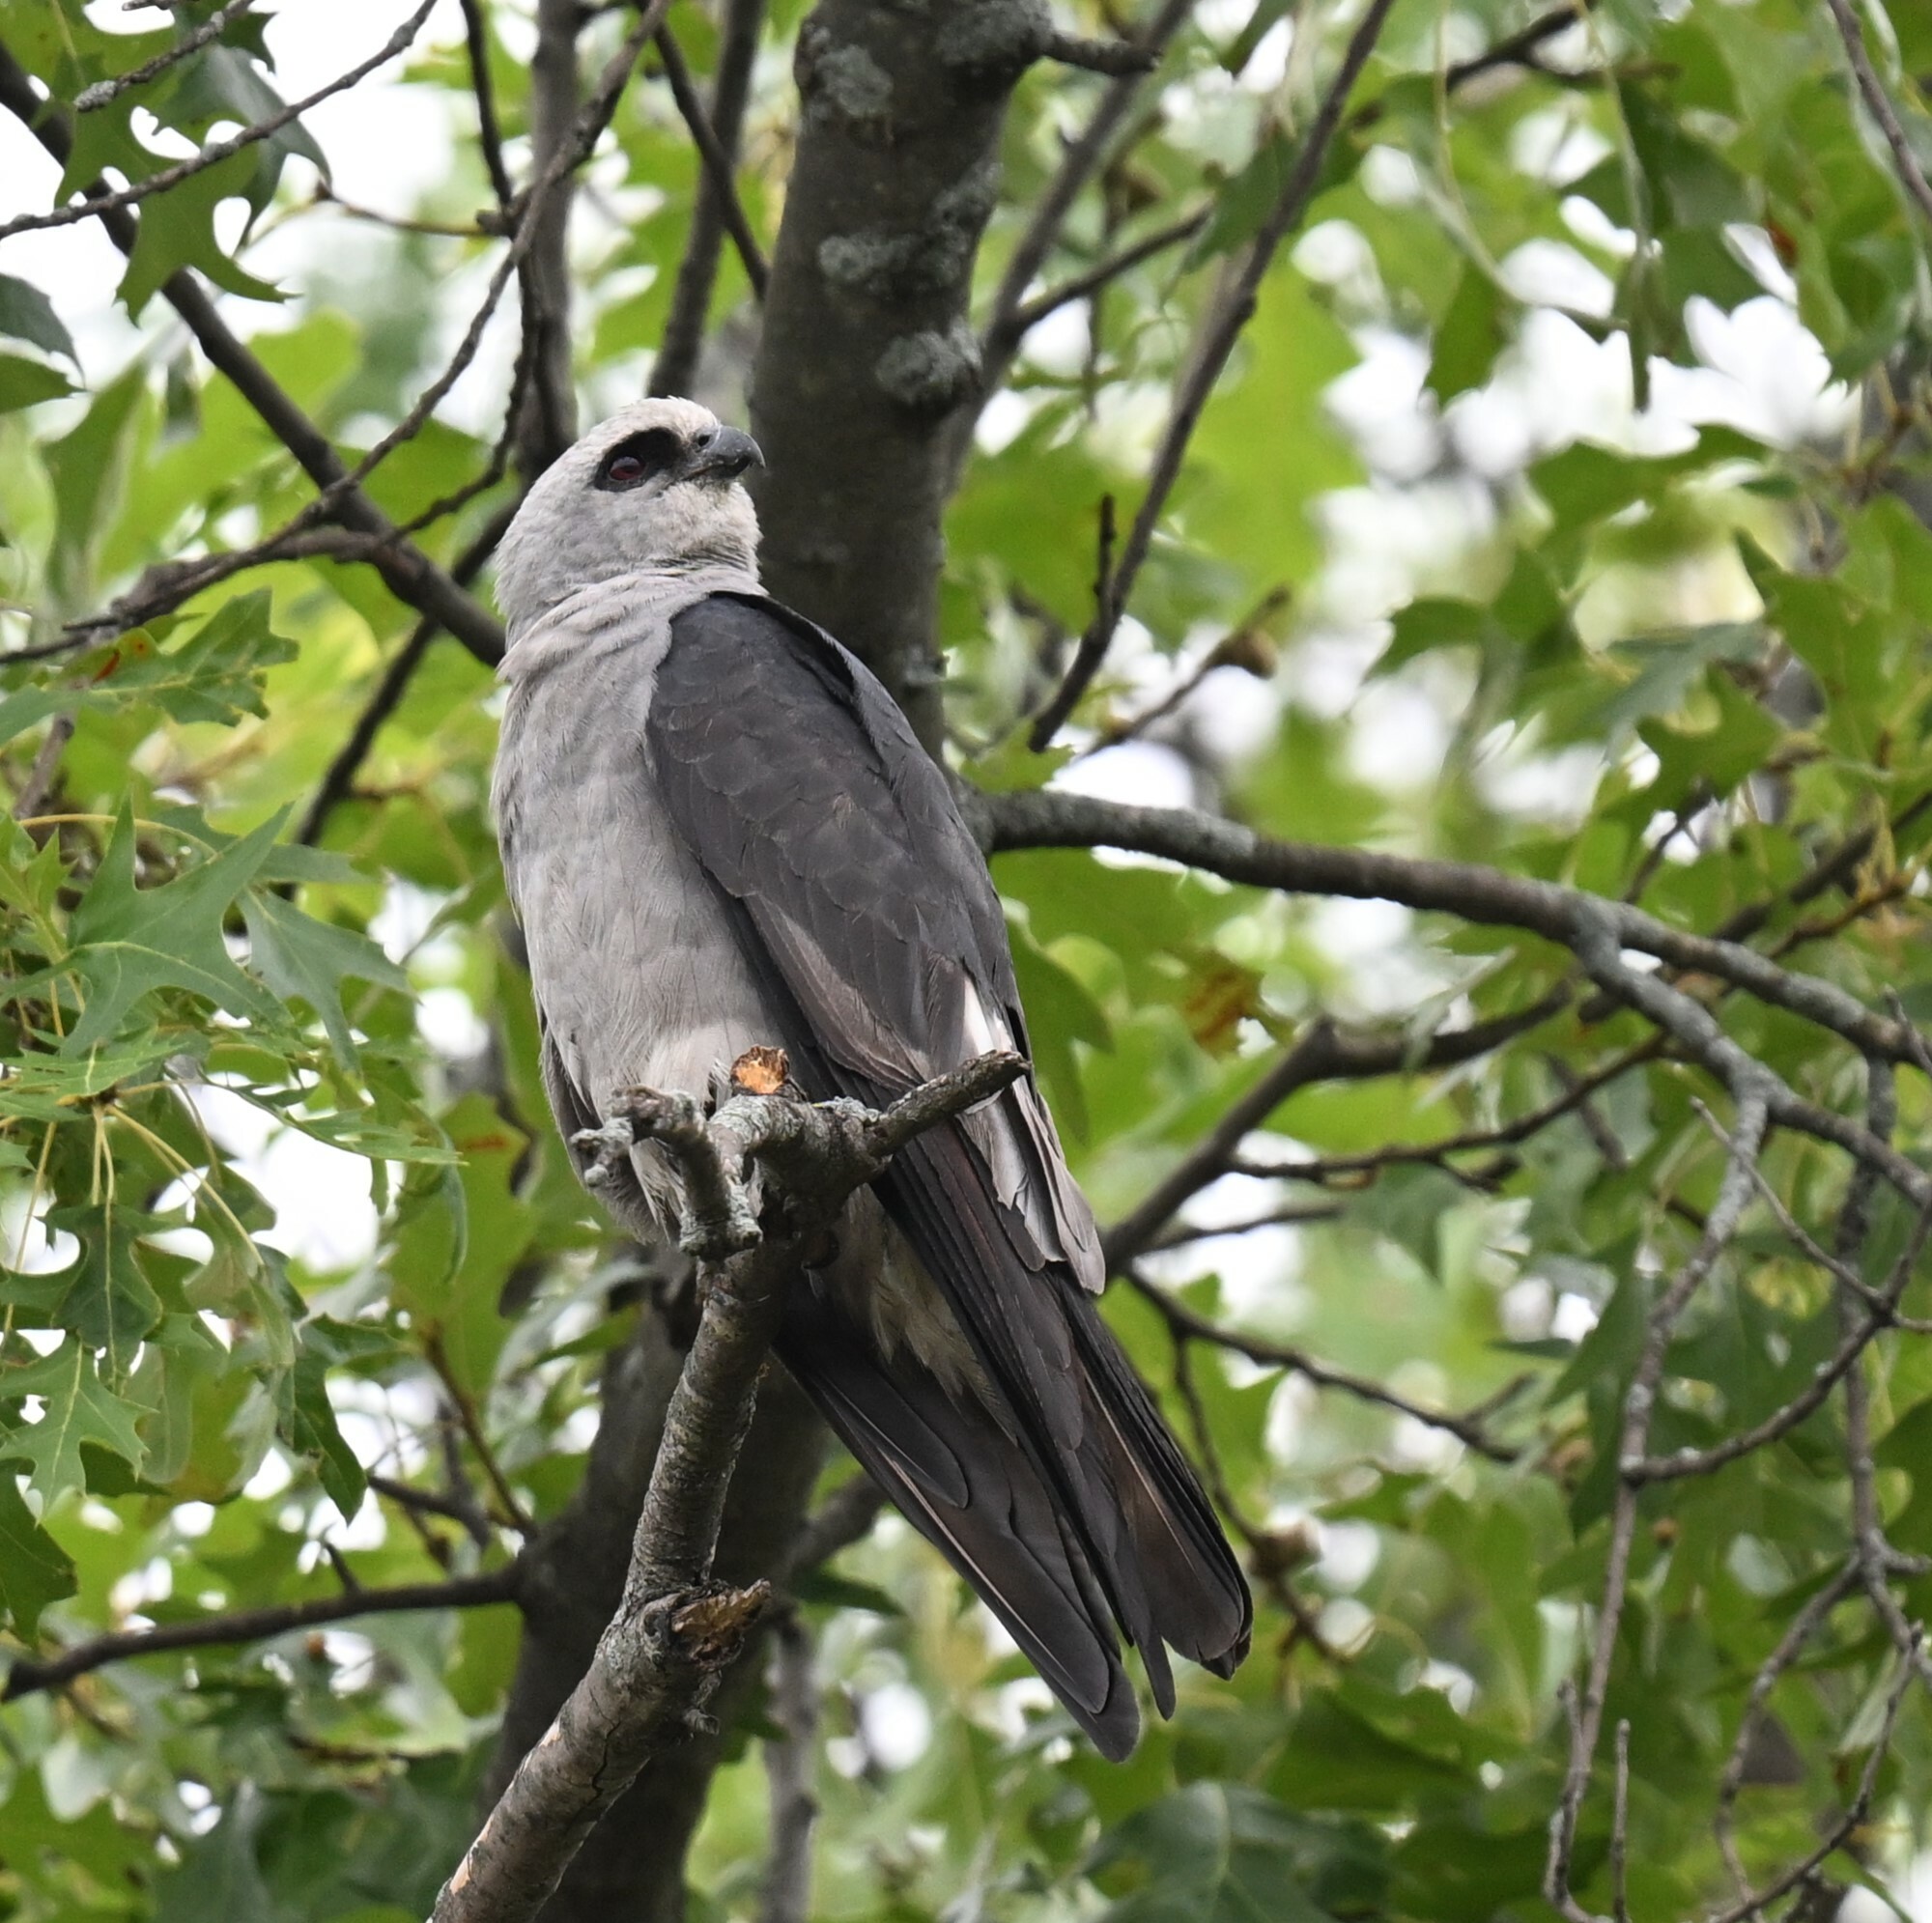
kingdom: Animalia
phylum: Chordata
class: Aves
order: Accipitriformes
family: Accipitridae
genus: Ictinia
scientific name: Ictinia mississippiensis
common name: Mississippi kite
